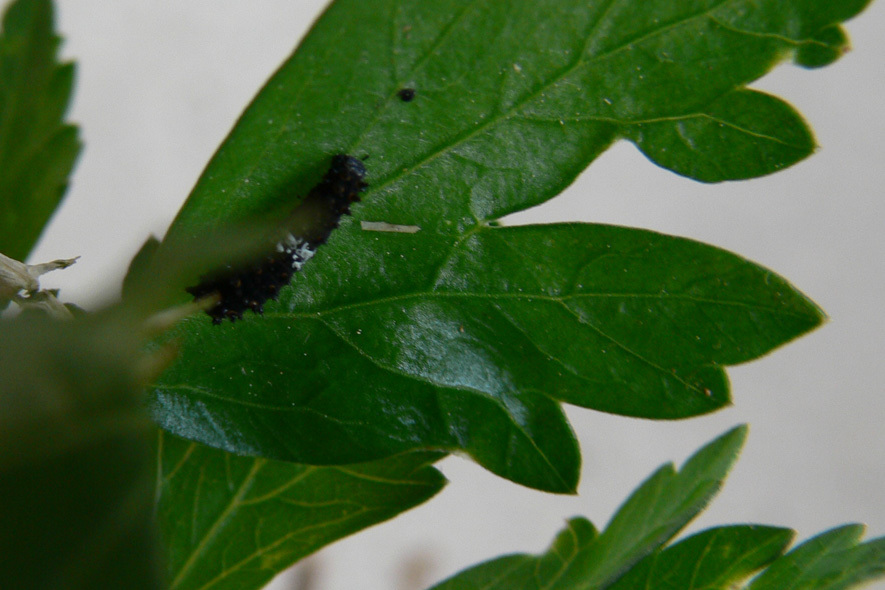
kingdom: Animalia
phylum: Arthropoda
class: Insecta
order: Lepidoptera
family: Papilionidae
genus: Papilio
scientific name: Papilio polyxenes
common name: Black swallowtail
